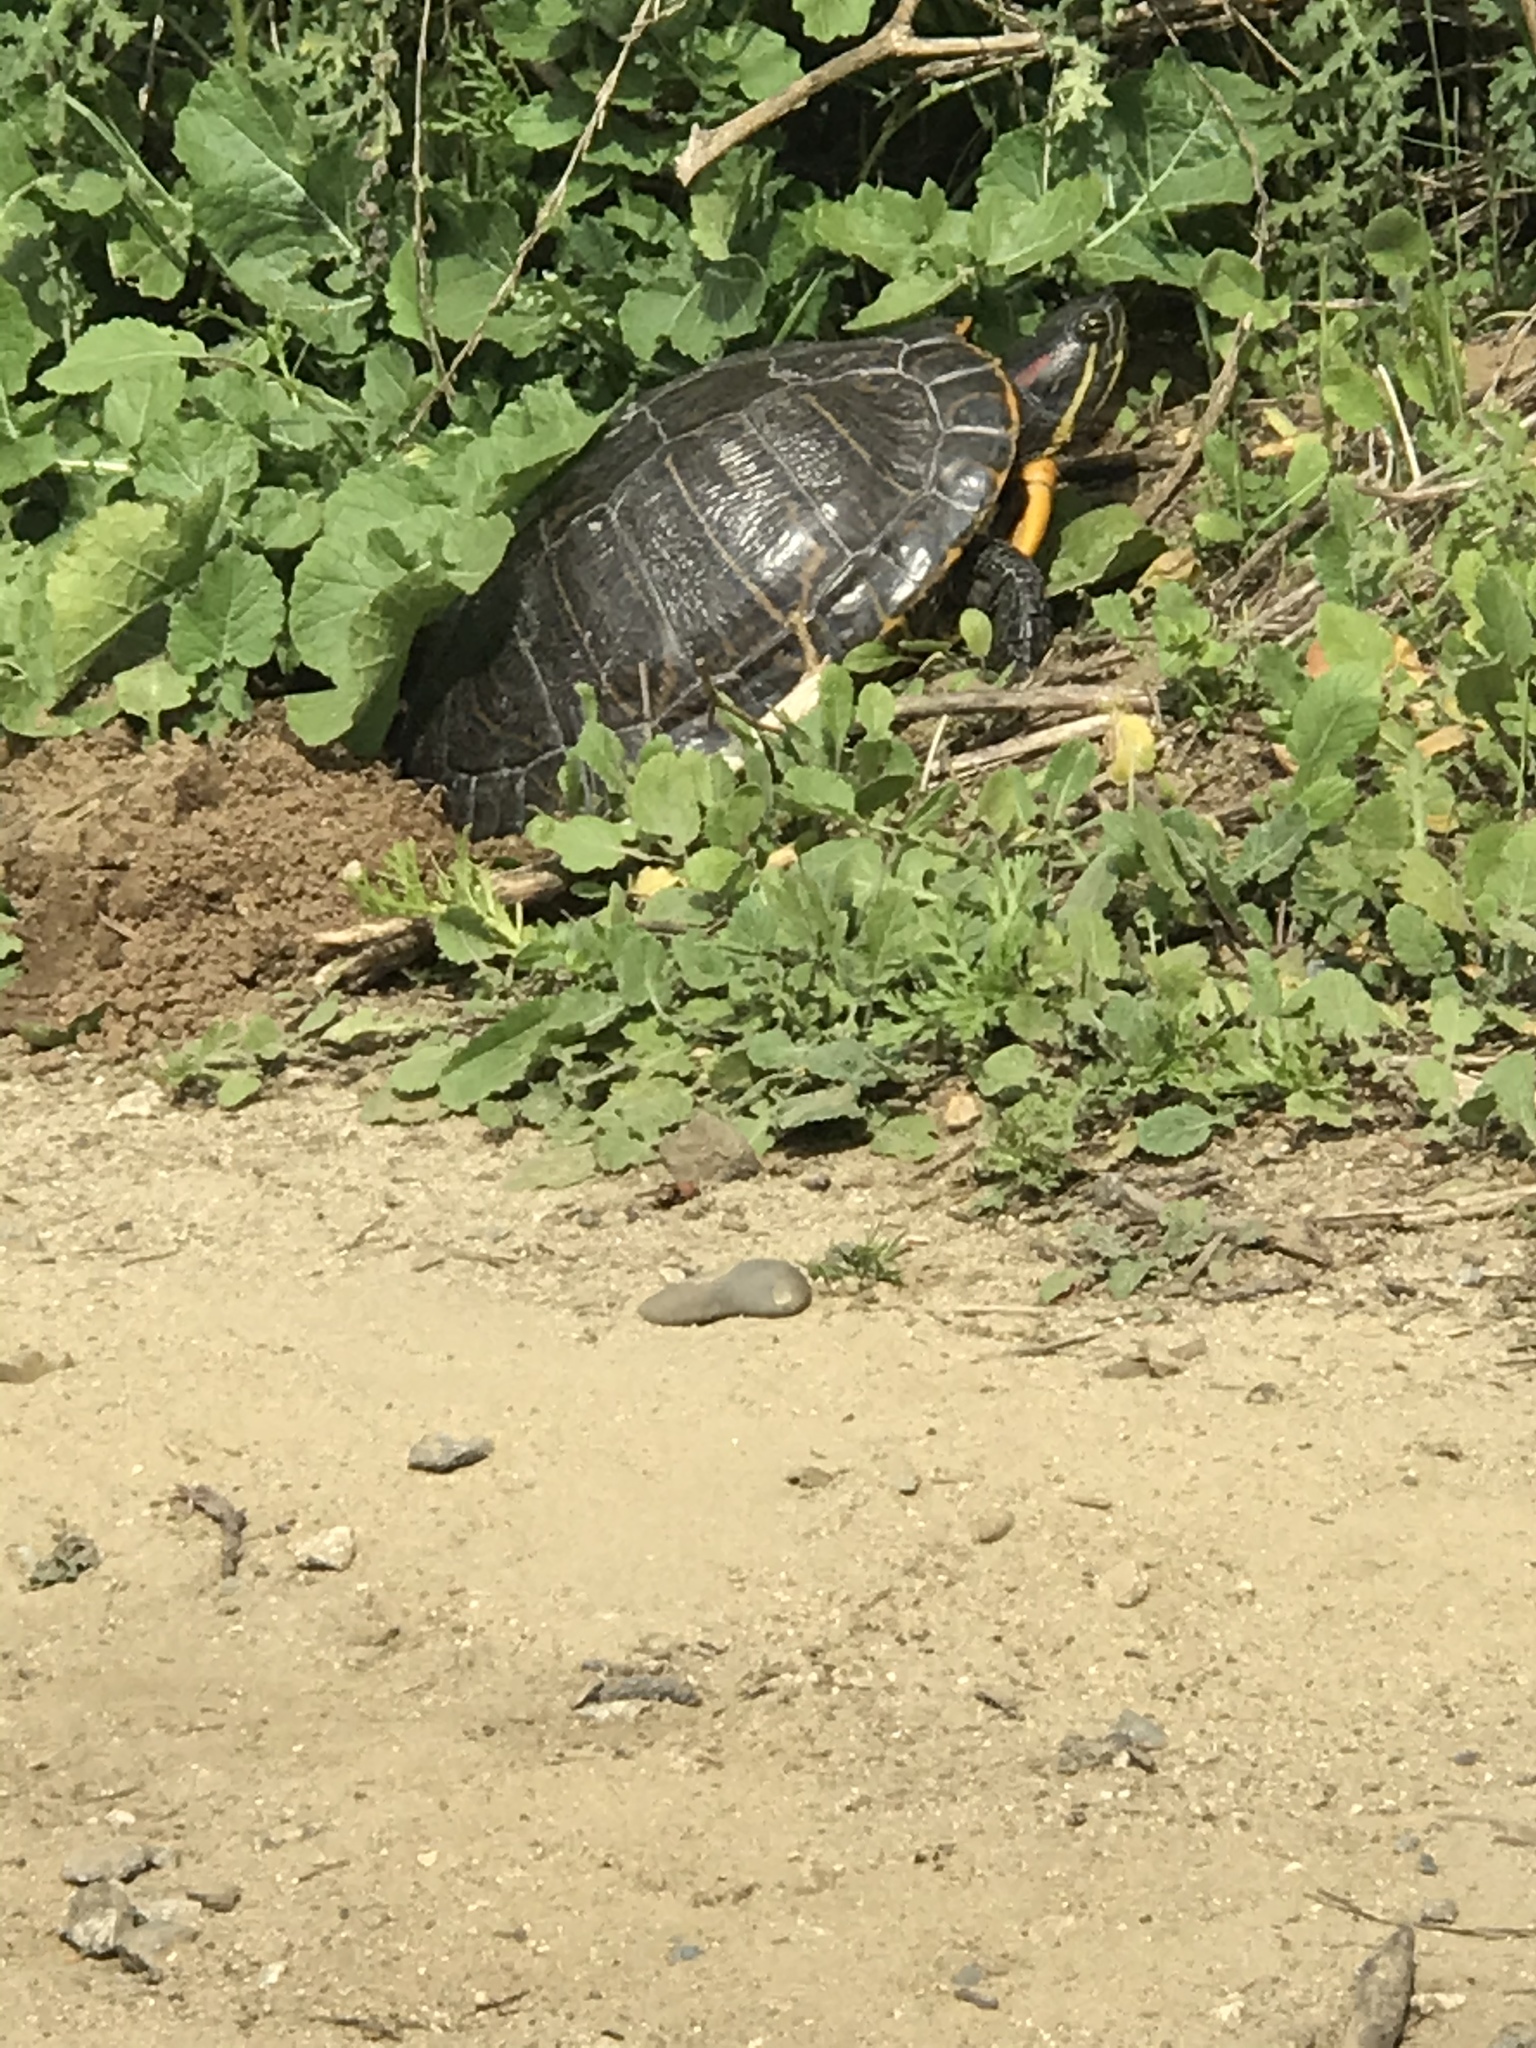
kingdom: Animalia
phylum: Chordata
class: Testudines
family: Emydidae
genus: Trachemys
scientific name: Trachemys scripta
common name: Slider
